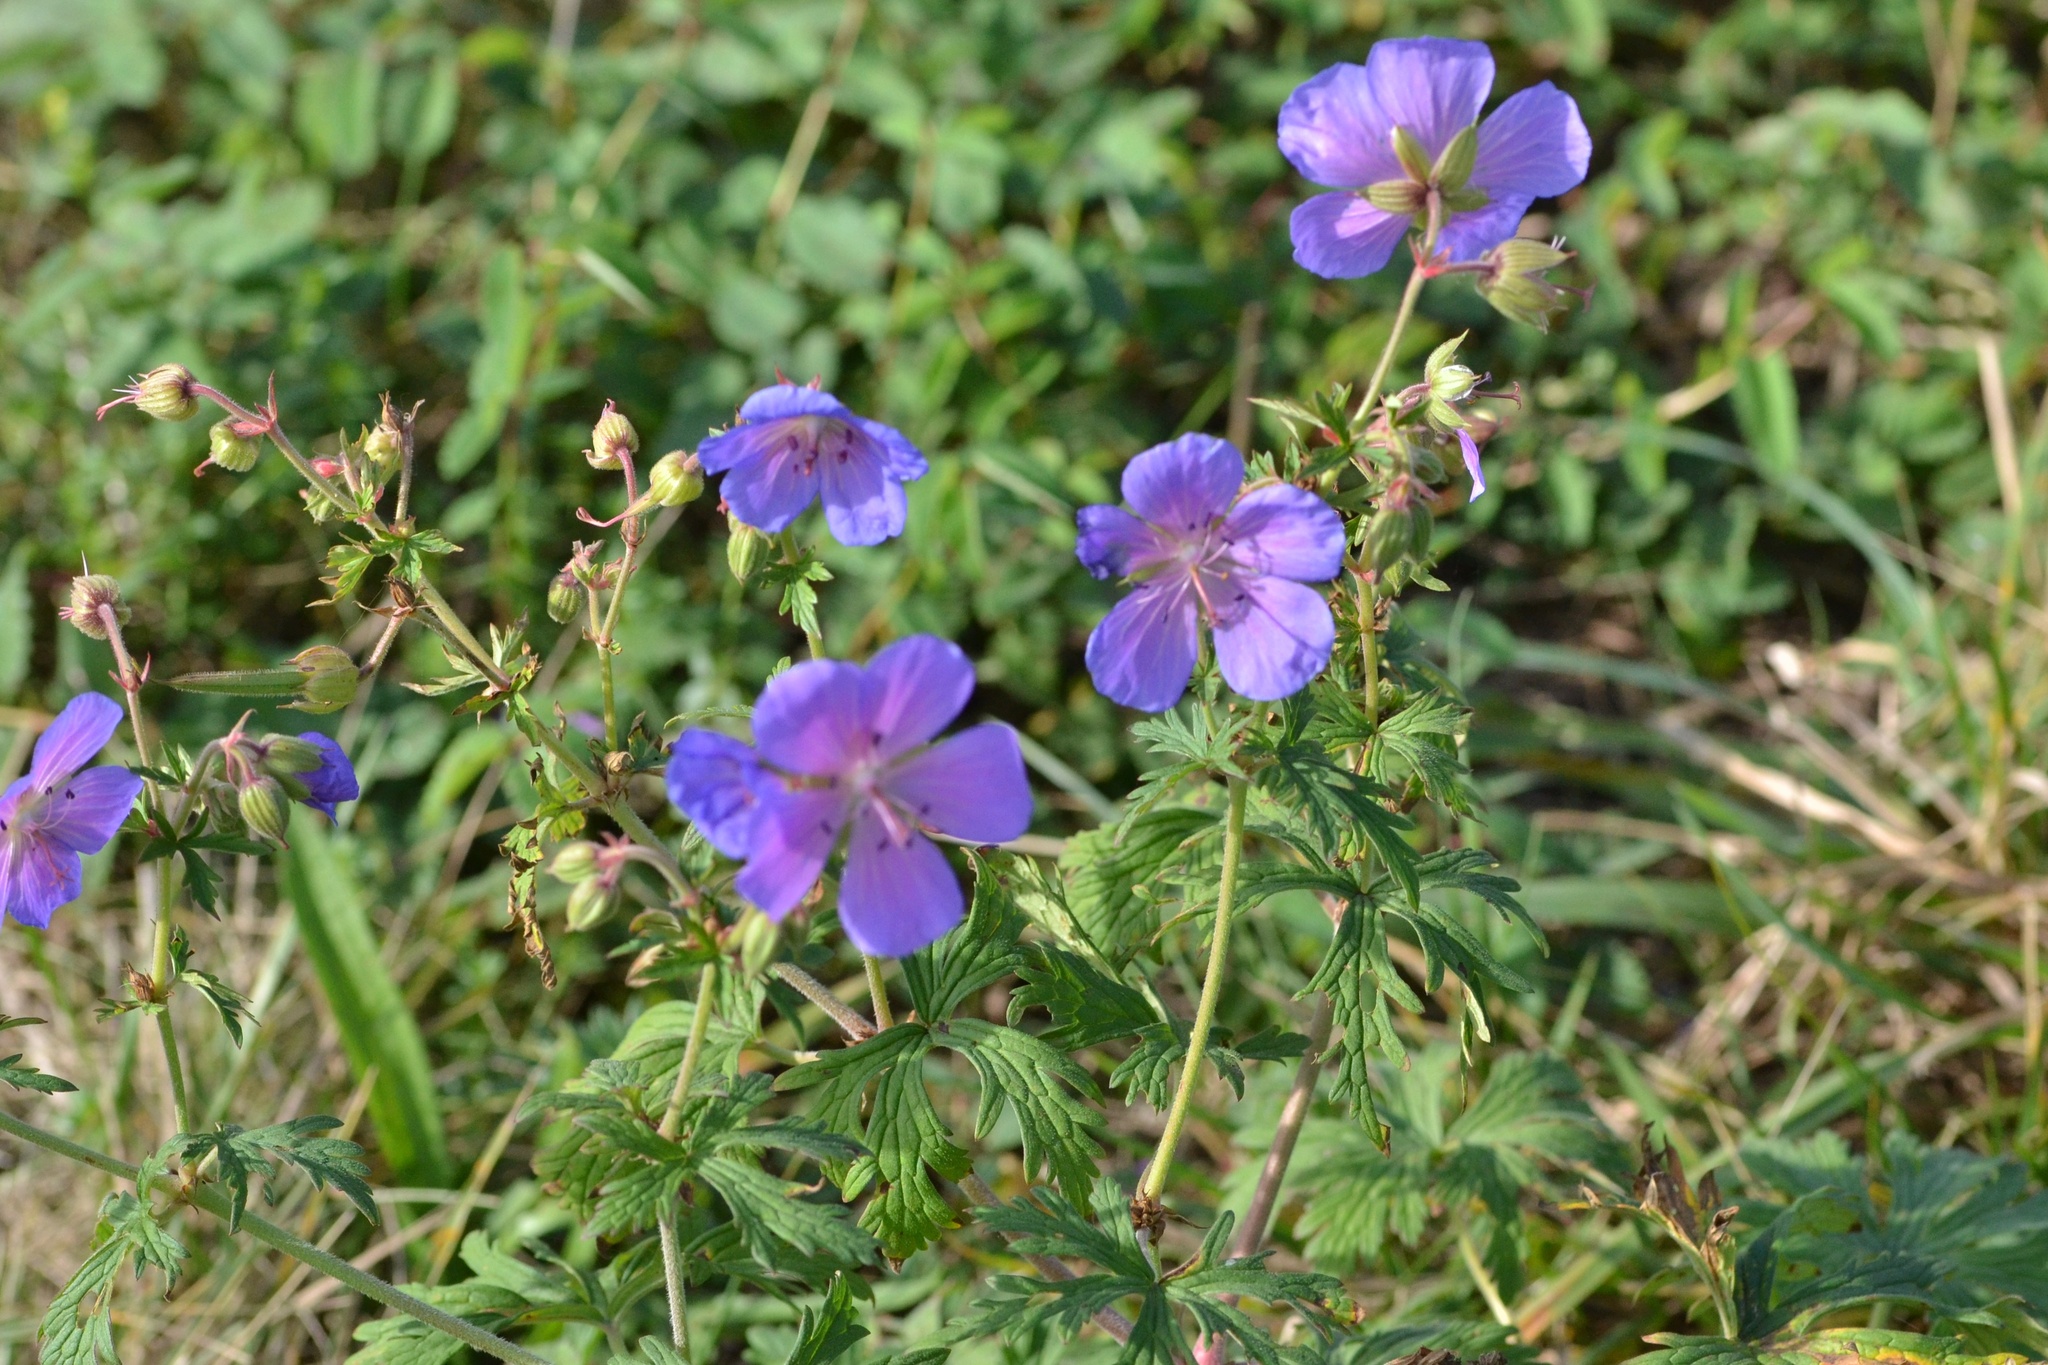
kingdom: Plantae
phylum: Tracheophyta
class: Magnoliopsida
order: Geraniales
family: Geraniaceae
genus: Geranium
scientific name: Geranium pratense
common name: Meadow crane's-bill
